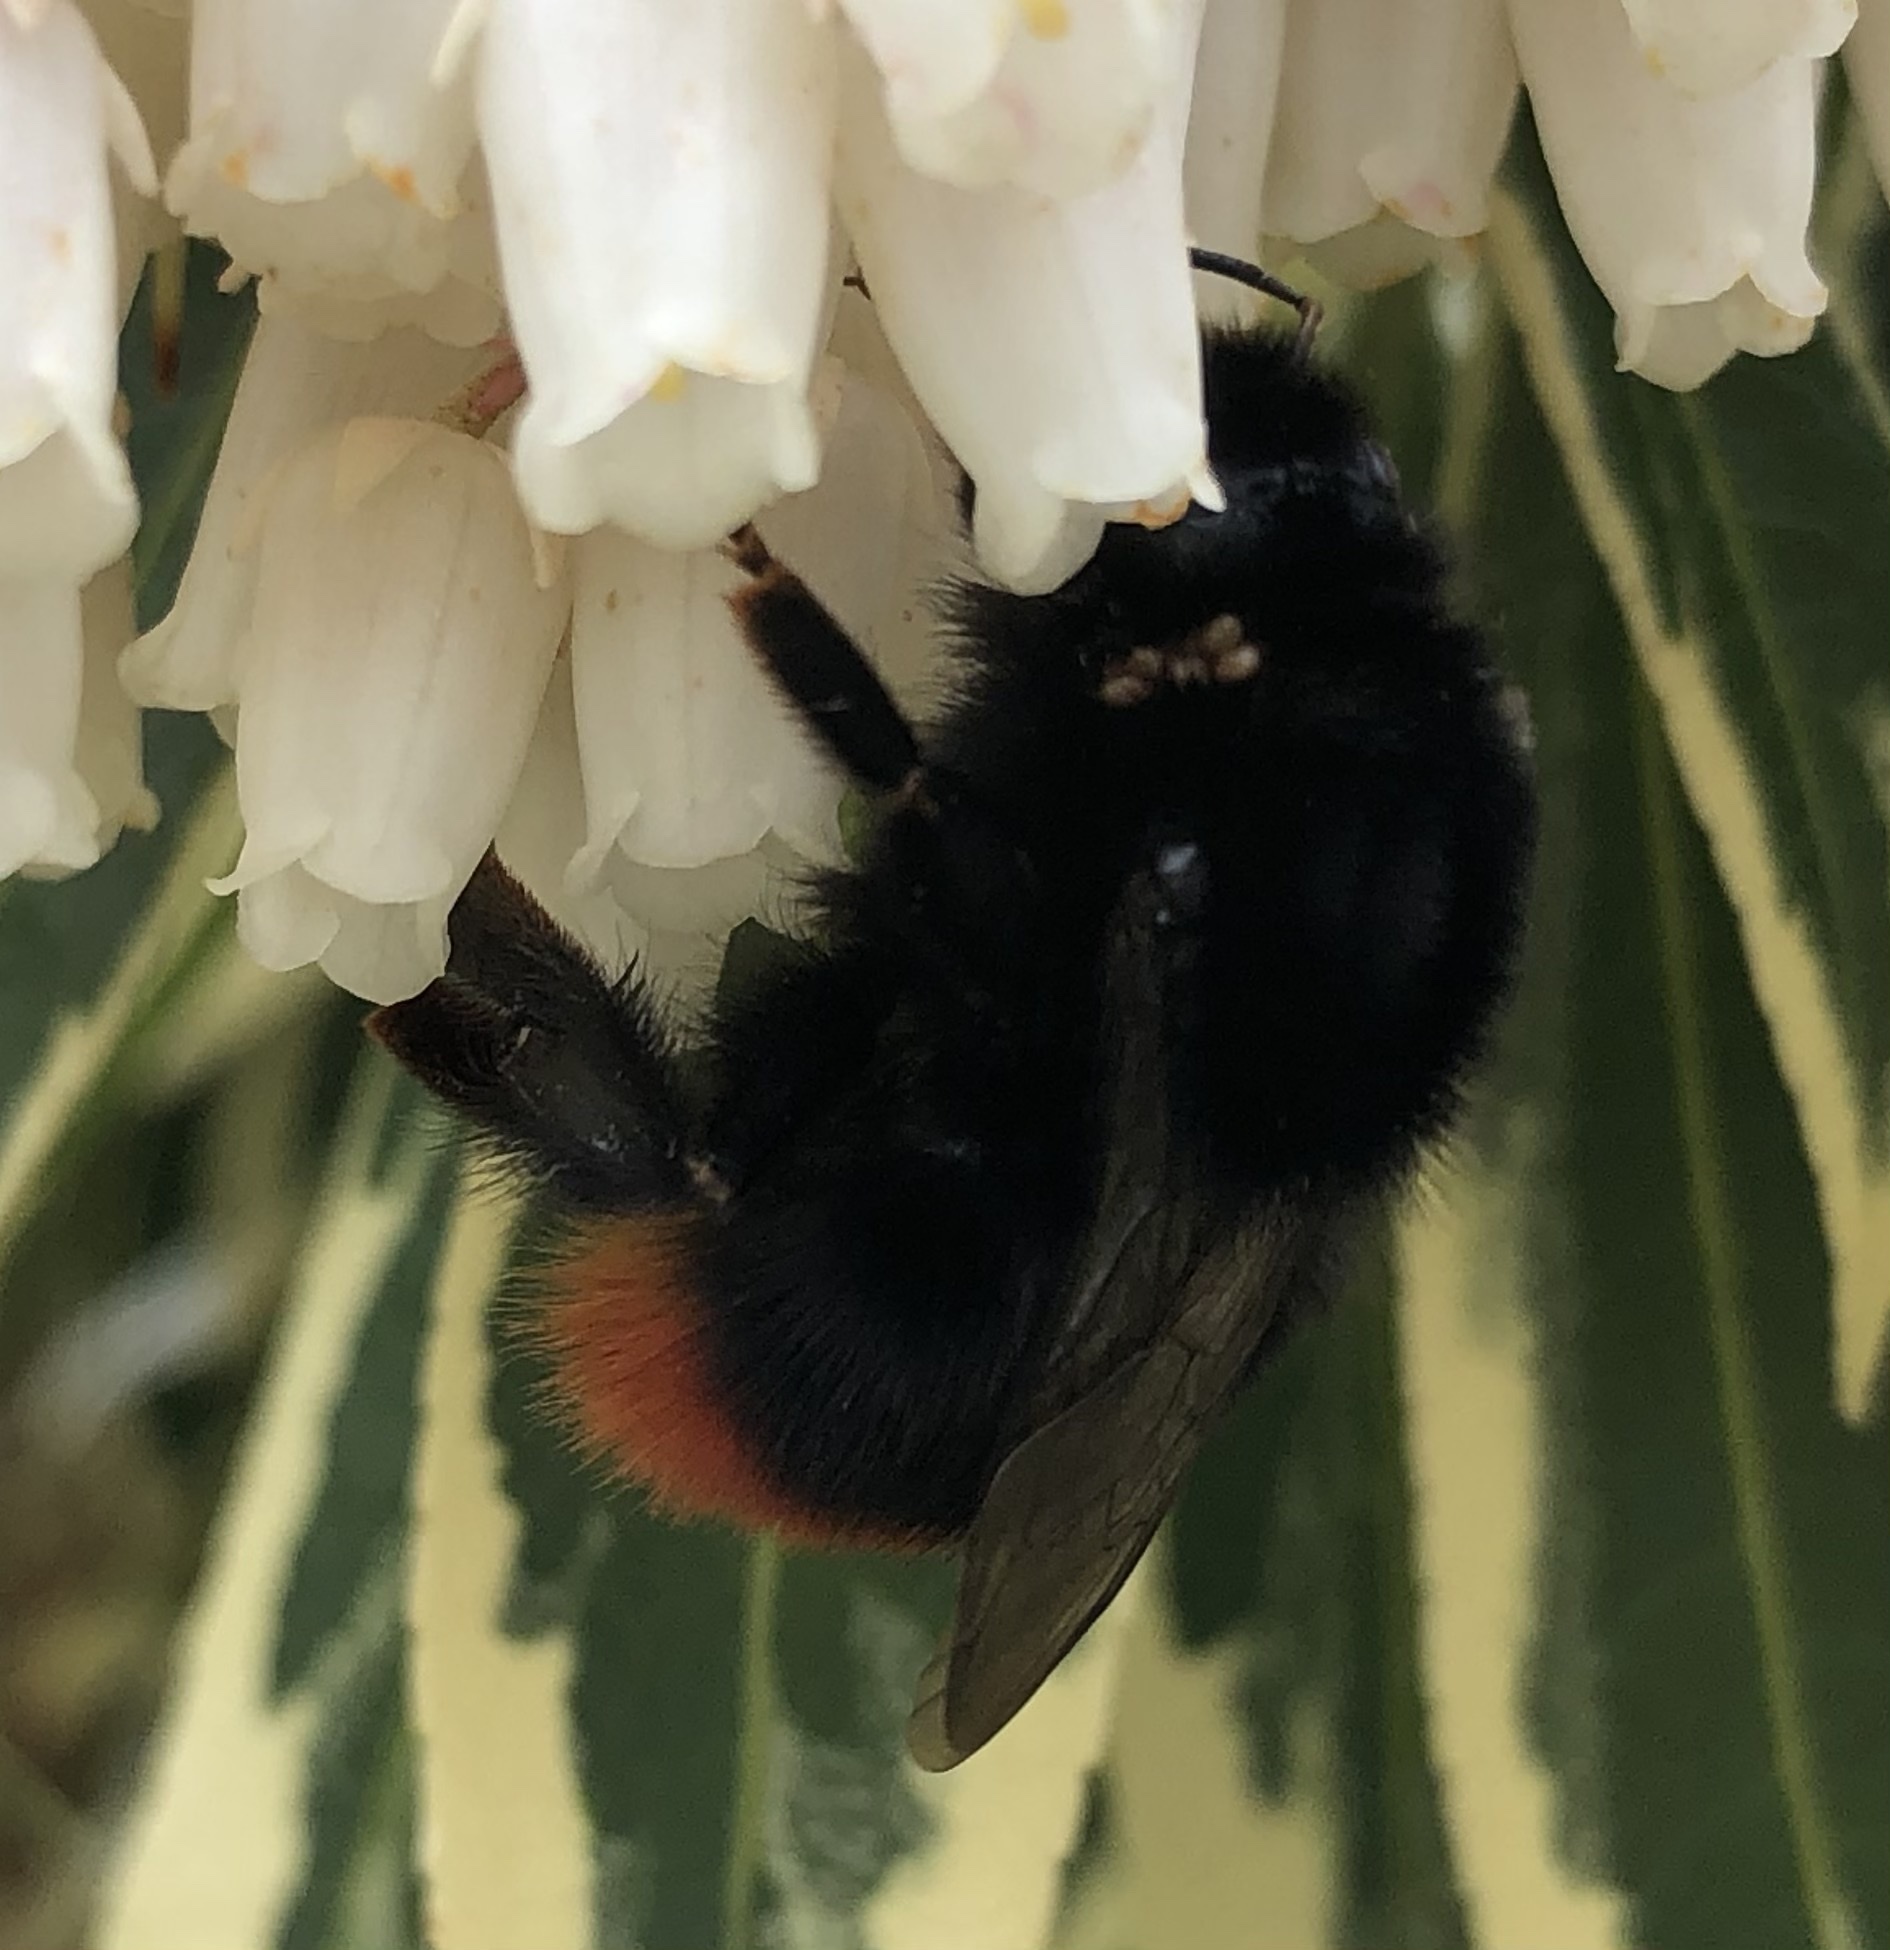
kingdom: Animalia
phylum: Arthropoda
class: Insecta
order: Hymenoptera
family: Apidae
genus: Bombus
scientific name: Bombus lapidarius
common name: Large red-tailed humble-bee
